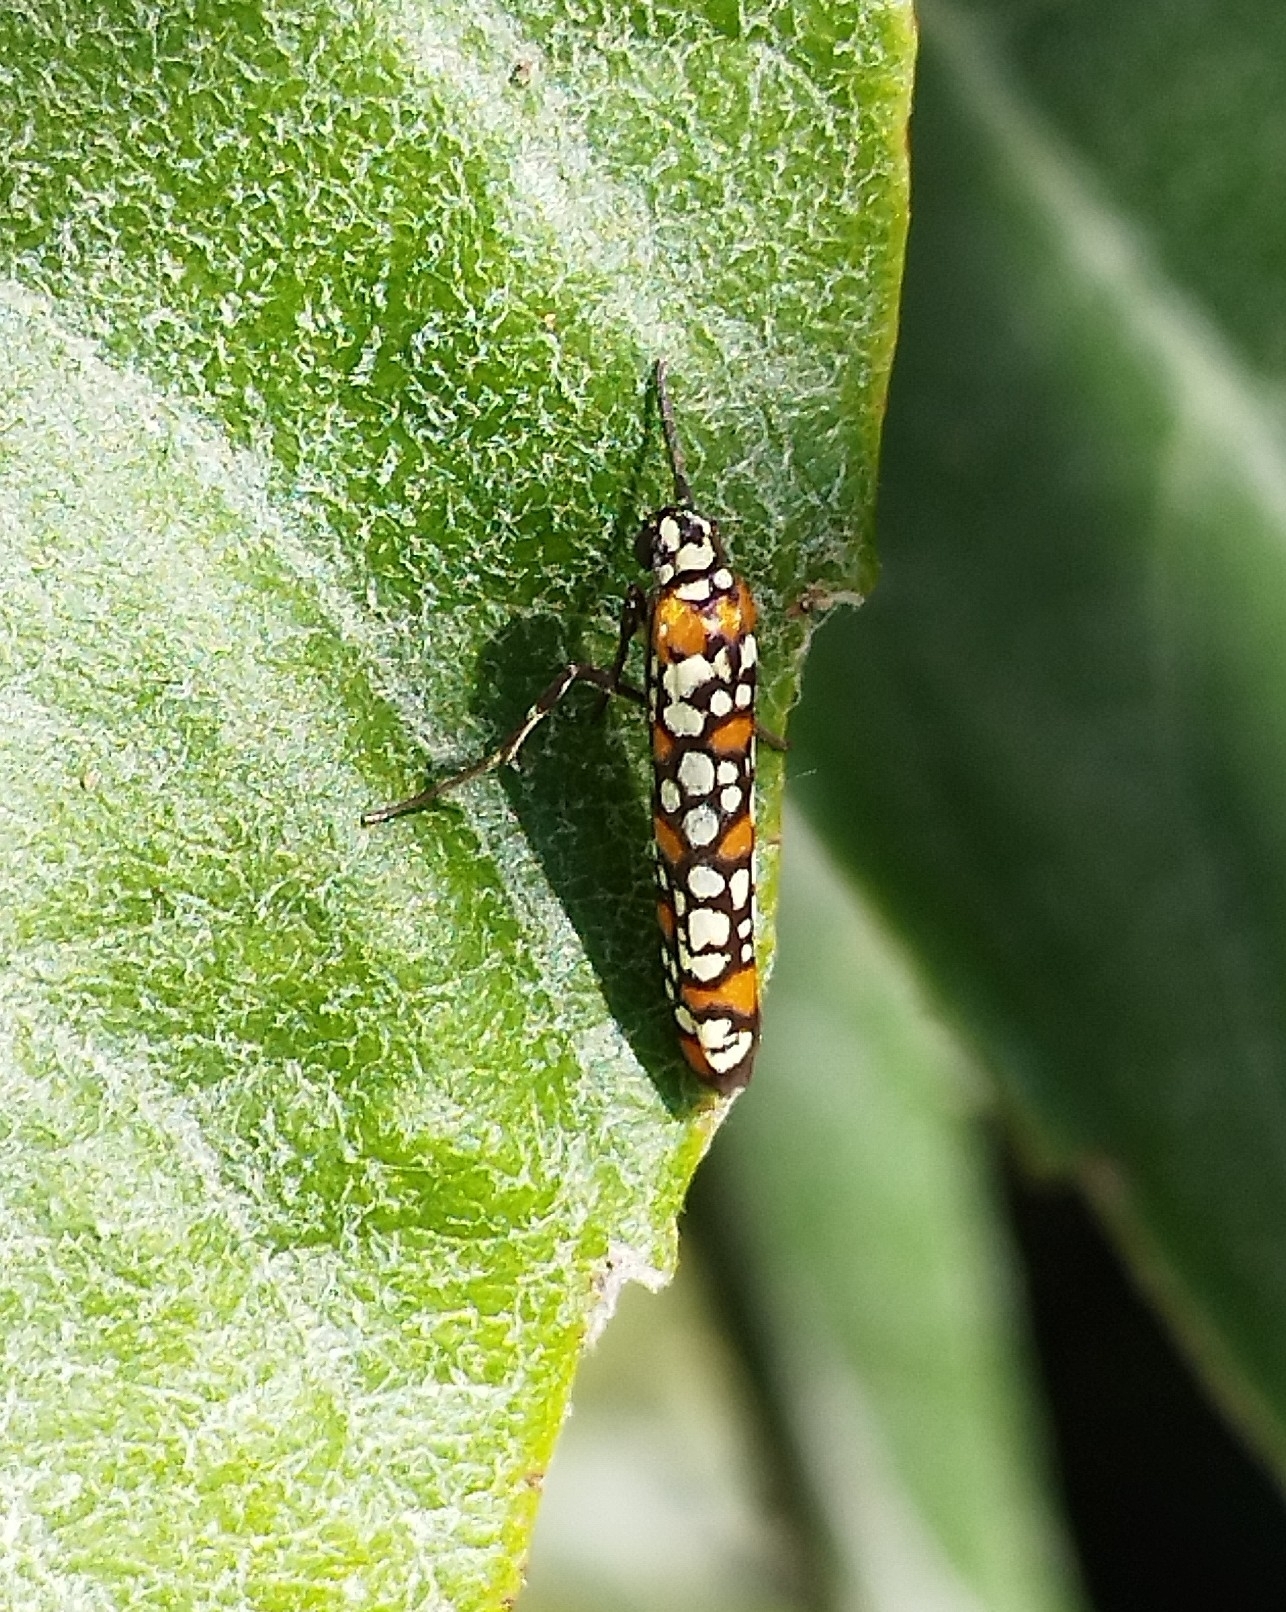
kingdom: Animalia
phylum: Arthropoda
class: Insecta
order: Lepidoptera
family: Attevidae
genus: Atteva
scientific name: Atteva punctella
